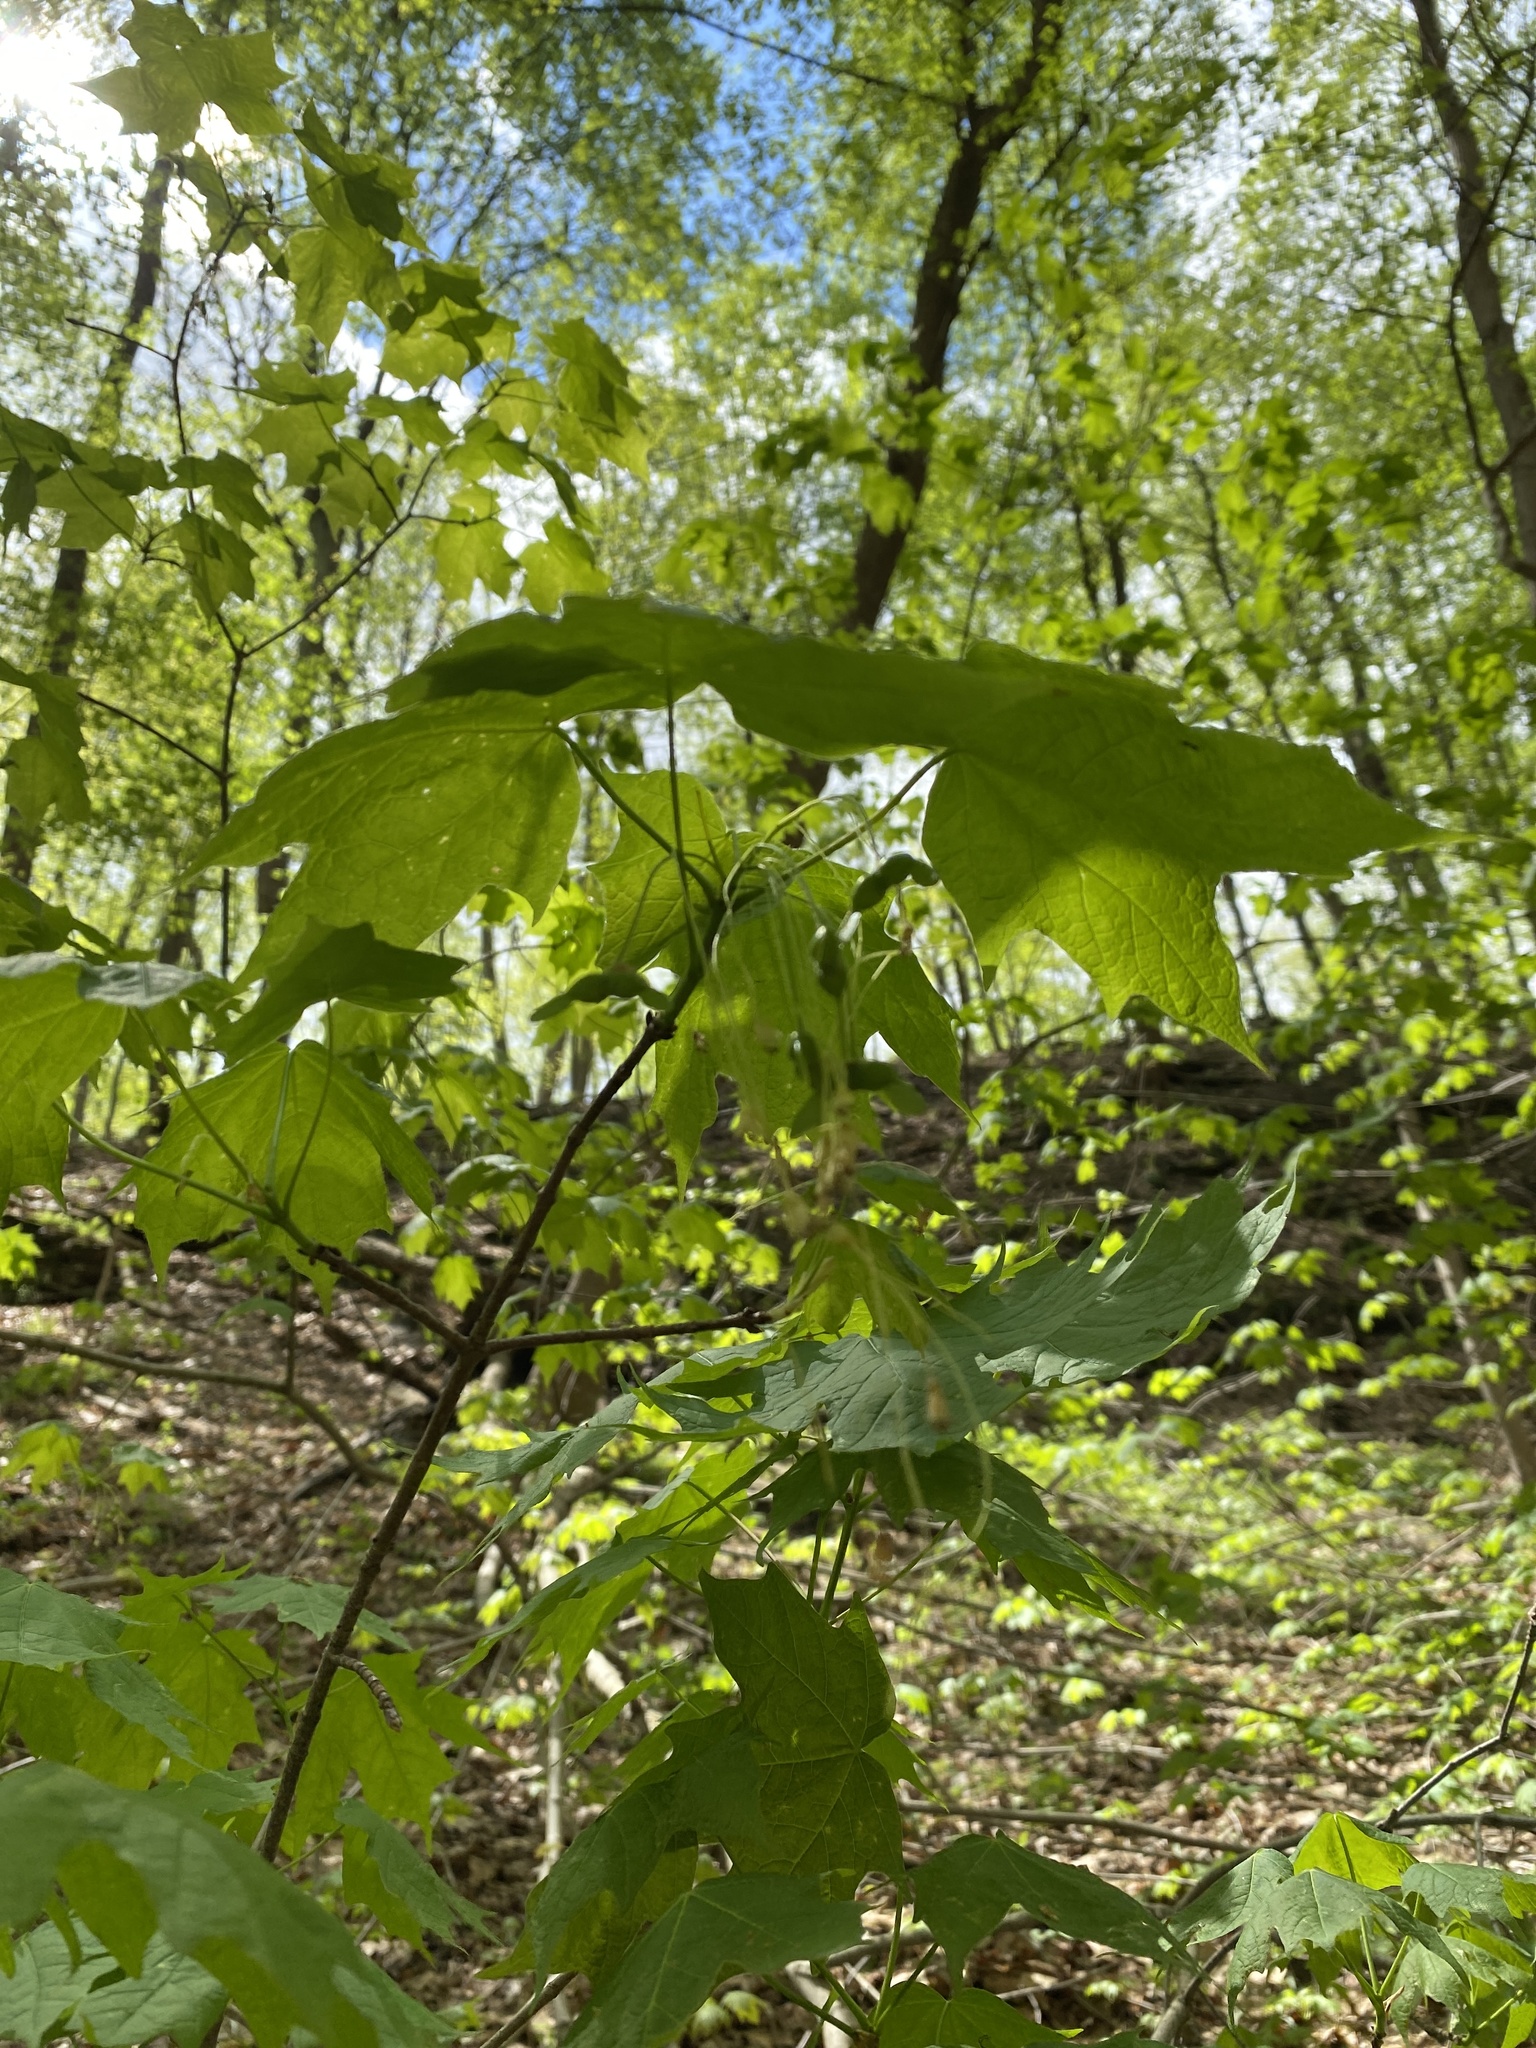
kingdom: Plantae
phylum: Tracheophyta
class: Magnoliopsida
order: Sapindales
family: Sapindaceae
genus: Acer
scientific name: Acer saccharum
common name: Sugar maple
